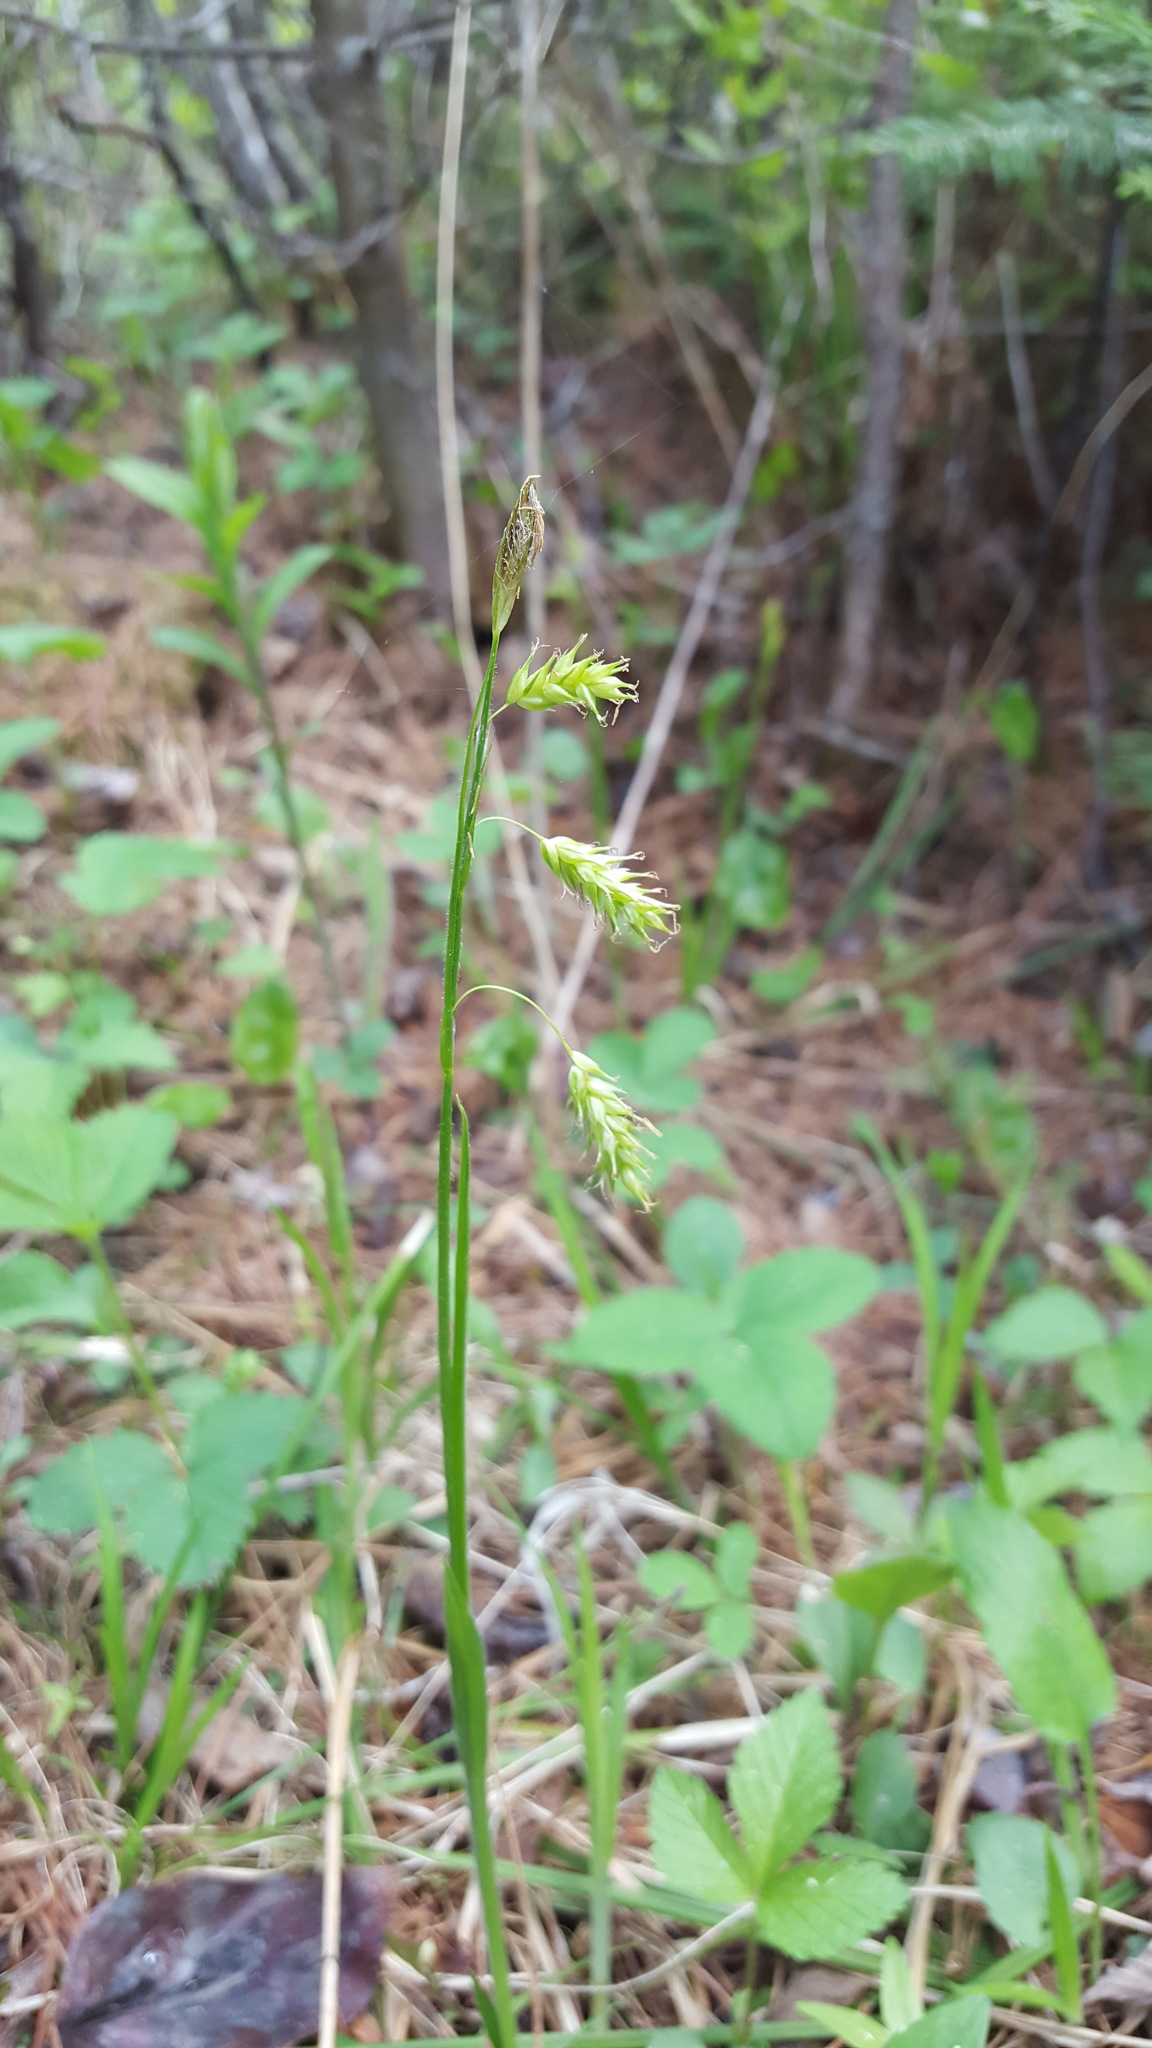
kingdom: Plantae
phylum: Tracheophyta
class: Liliopsida
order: Poales
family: Cyperaceae
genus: Carex
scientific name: Carex castanea
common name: Chestnut sedge
